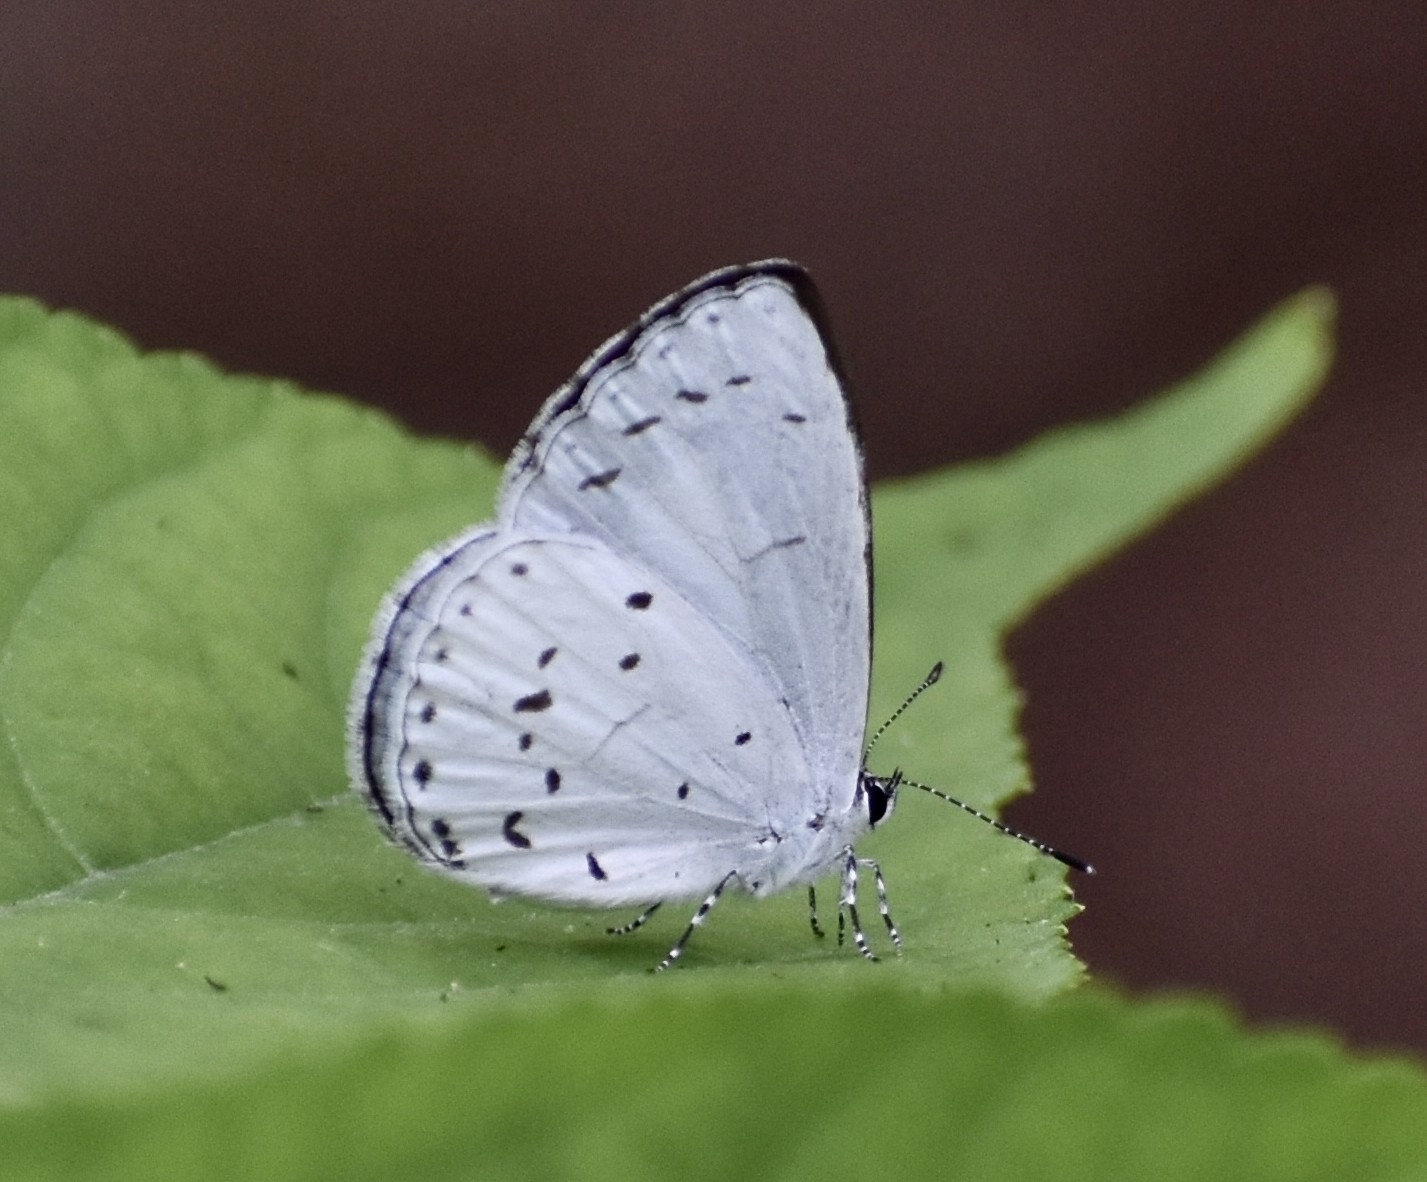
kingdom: Animalia
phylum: Arthropoda
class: Insecta
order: Lepidoptera
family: Lycaenidae
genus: Udara
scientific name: Udara albocaerulea
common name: Albocerulean
